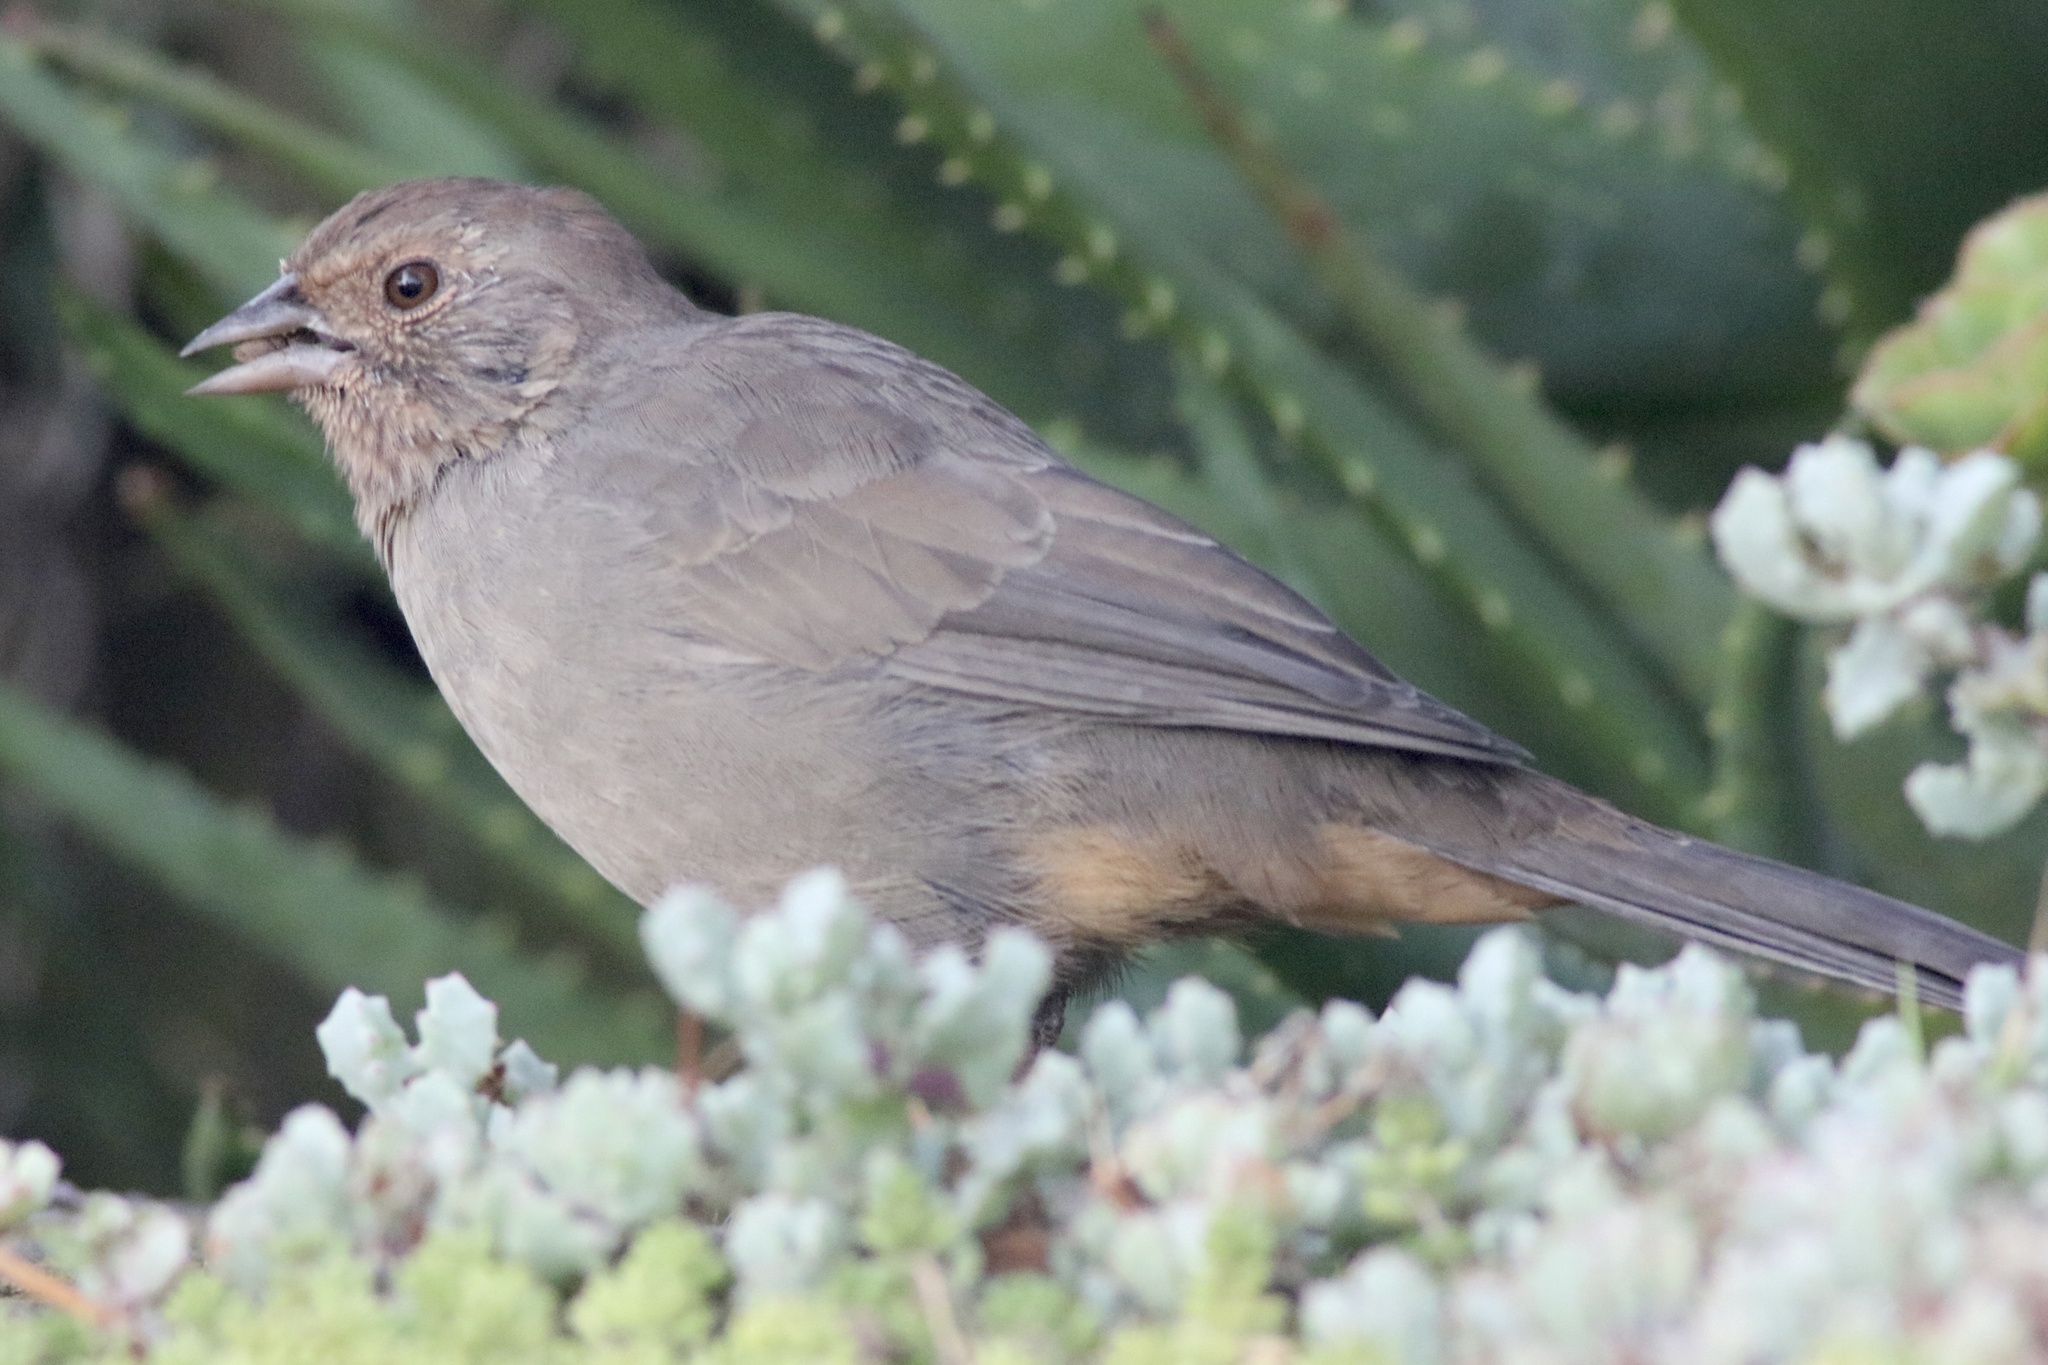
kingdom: Animalia
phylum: Chordata
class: Aves
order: Passeriformes
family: Passerellidae
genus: Melozone
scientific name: Melozone crissalis
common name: California towhee
